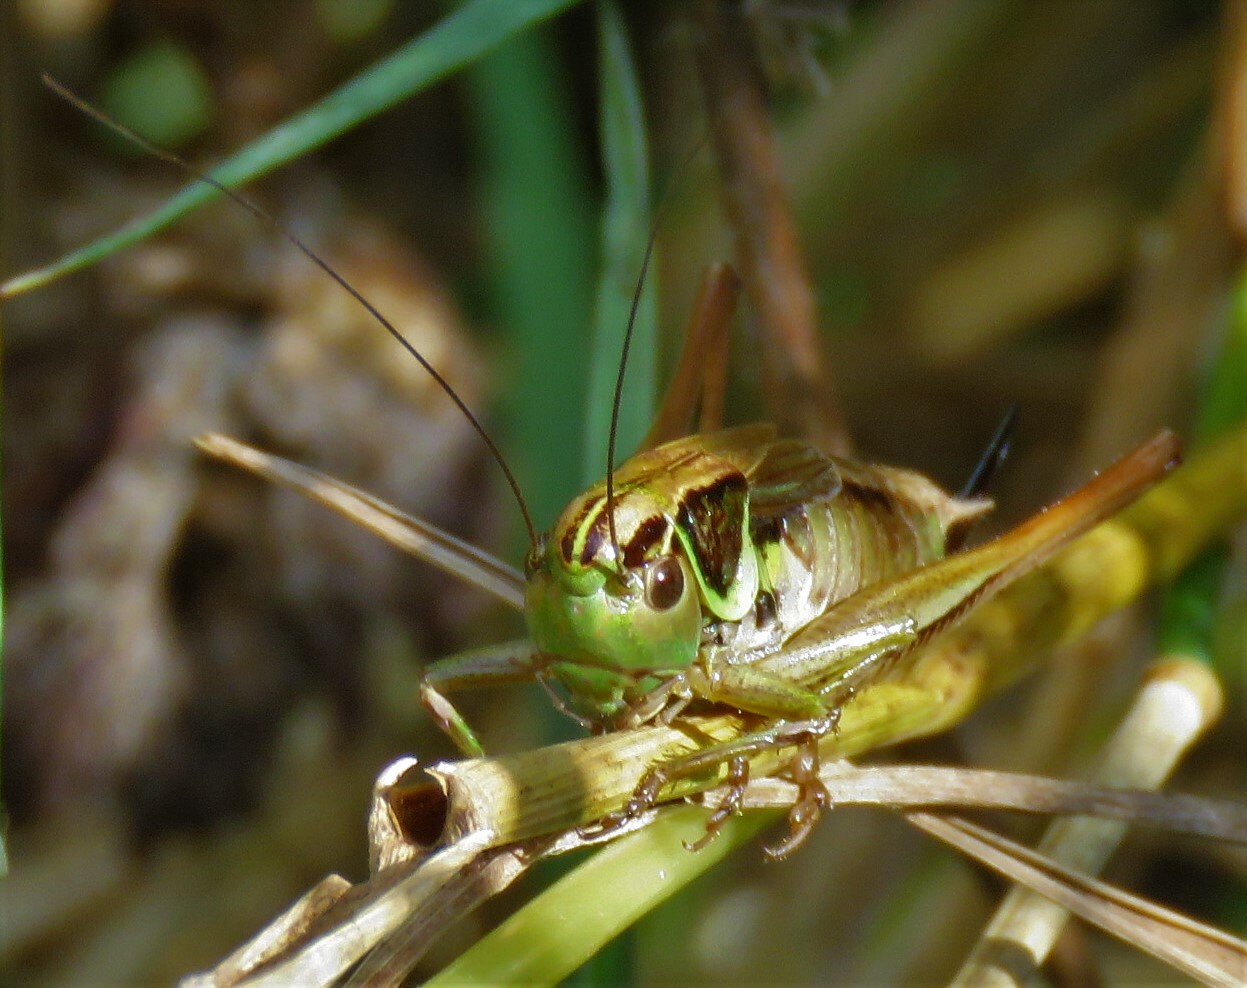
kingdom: Animalia
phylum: Arthropoda
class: Insecta
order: Orthoptera
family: Tettigoniidae
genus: Roeseliana
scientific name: Roeseliana roeselii
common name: Roesel's bush cricket
